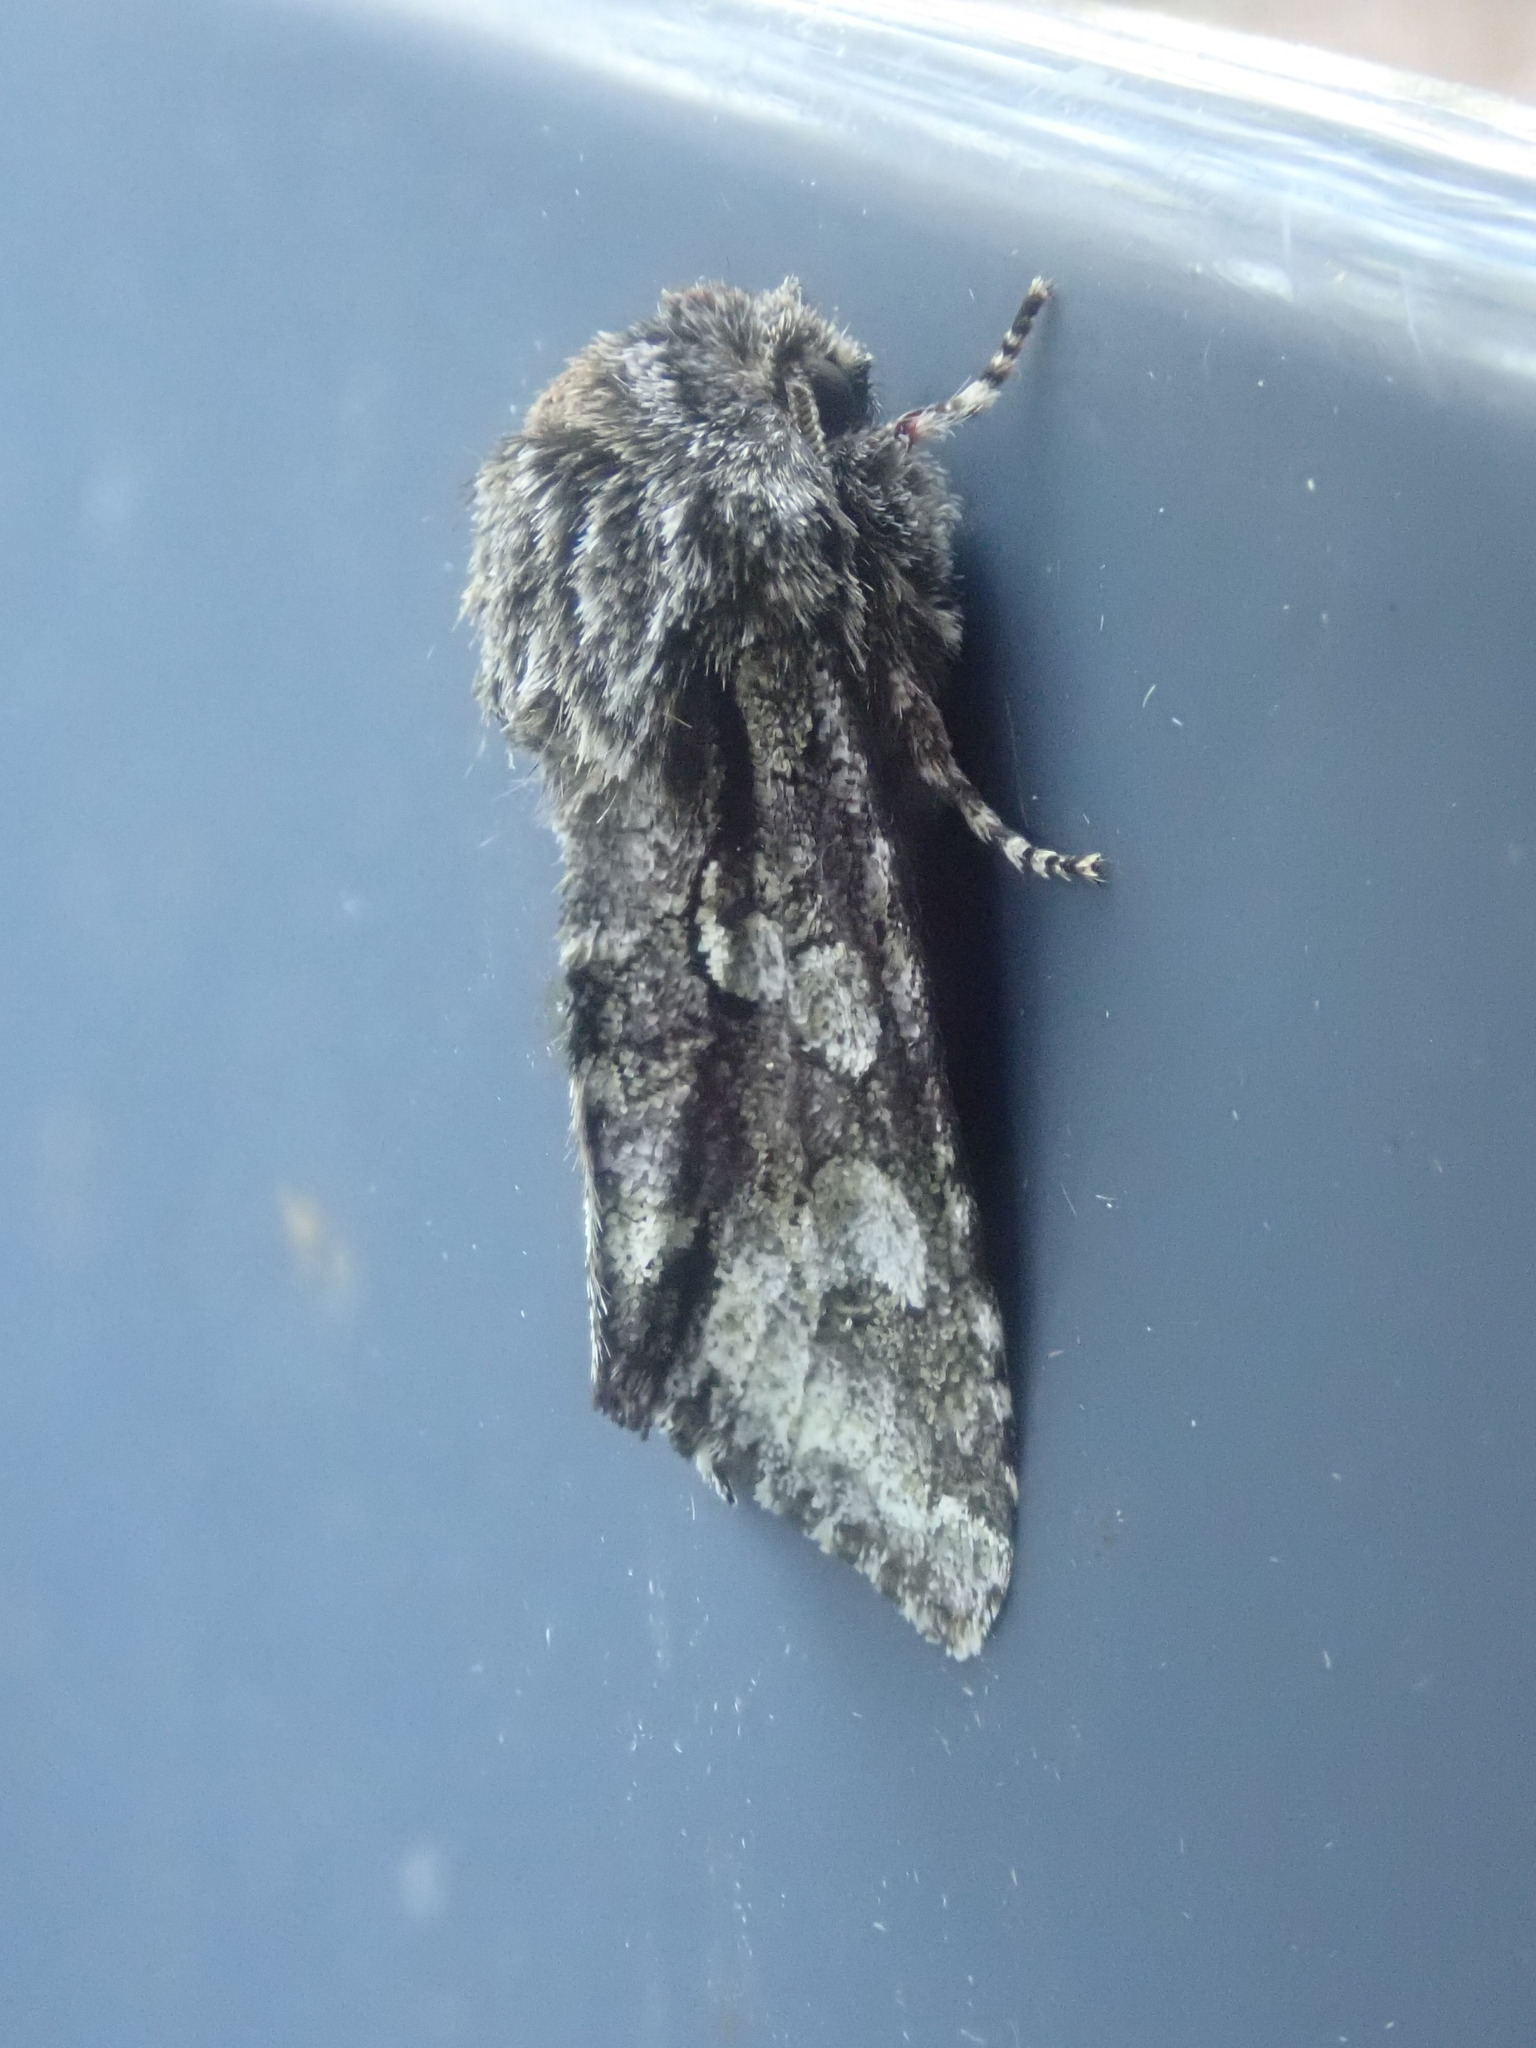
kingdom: Animalia
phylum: Arthropoda
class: Insecta
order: Lepidoptera
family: Noctuidae
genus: Psaphida
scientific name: Psaphida resumens
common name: Figure-eight sallow
